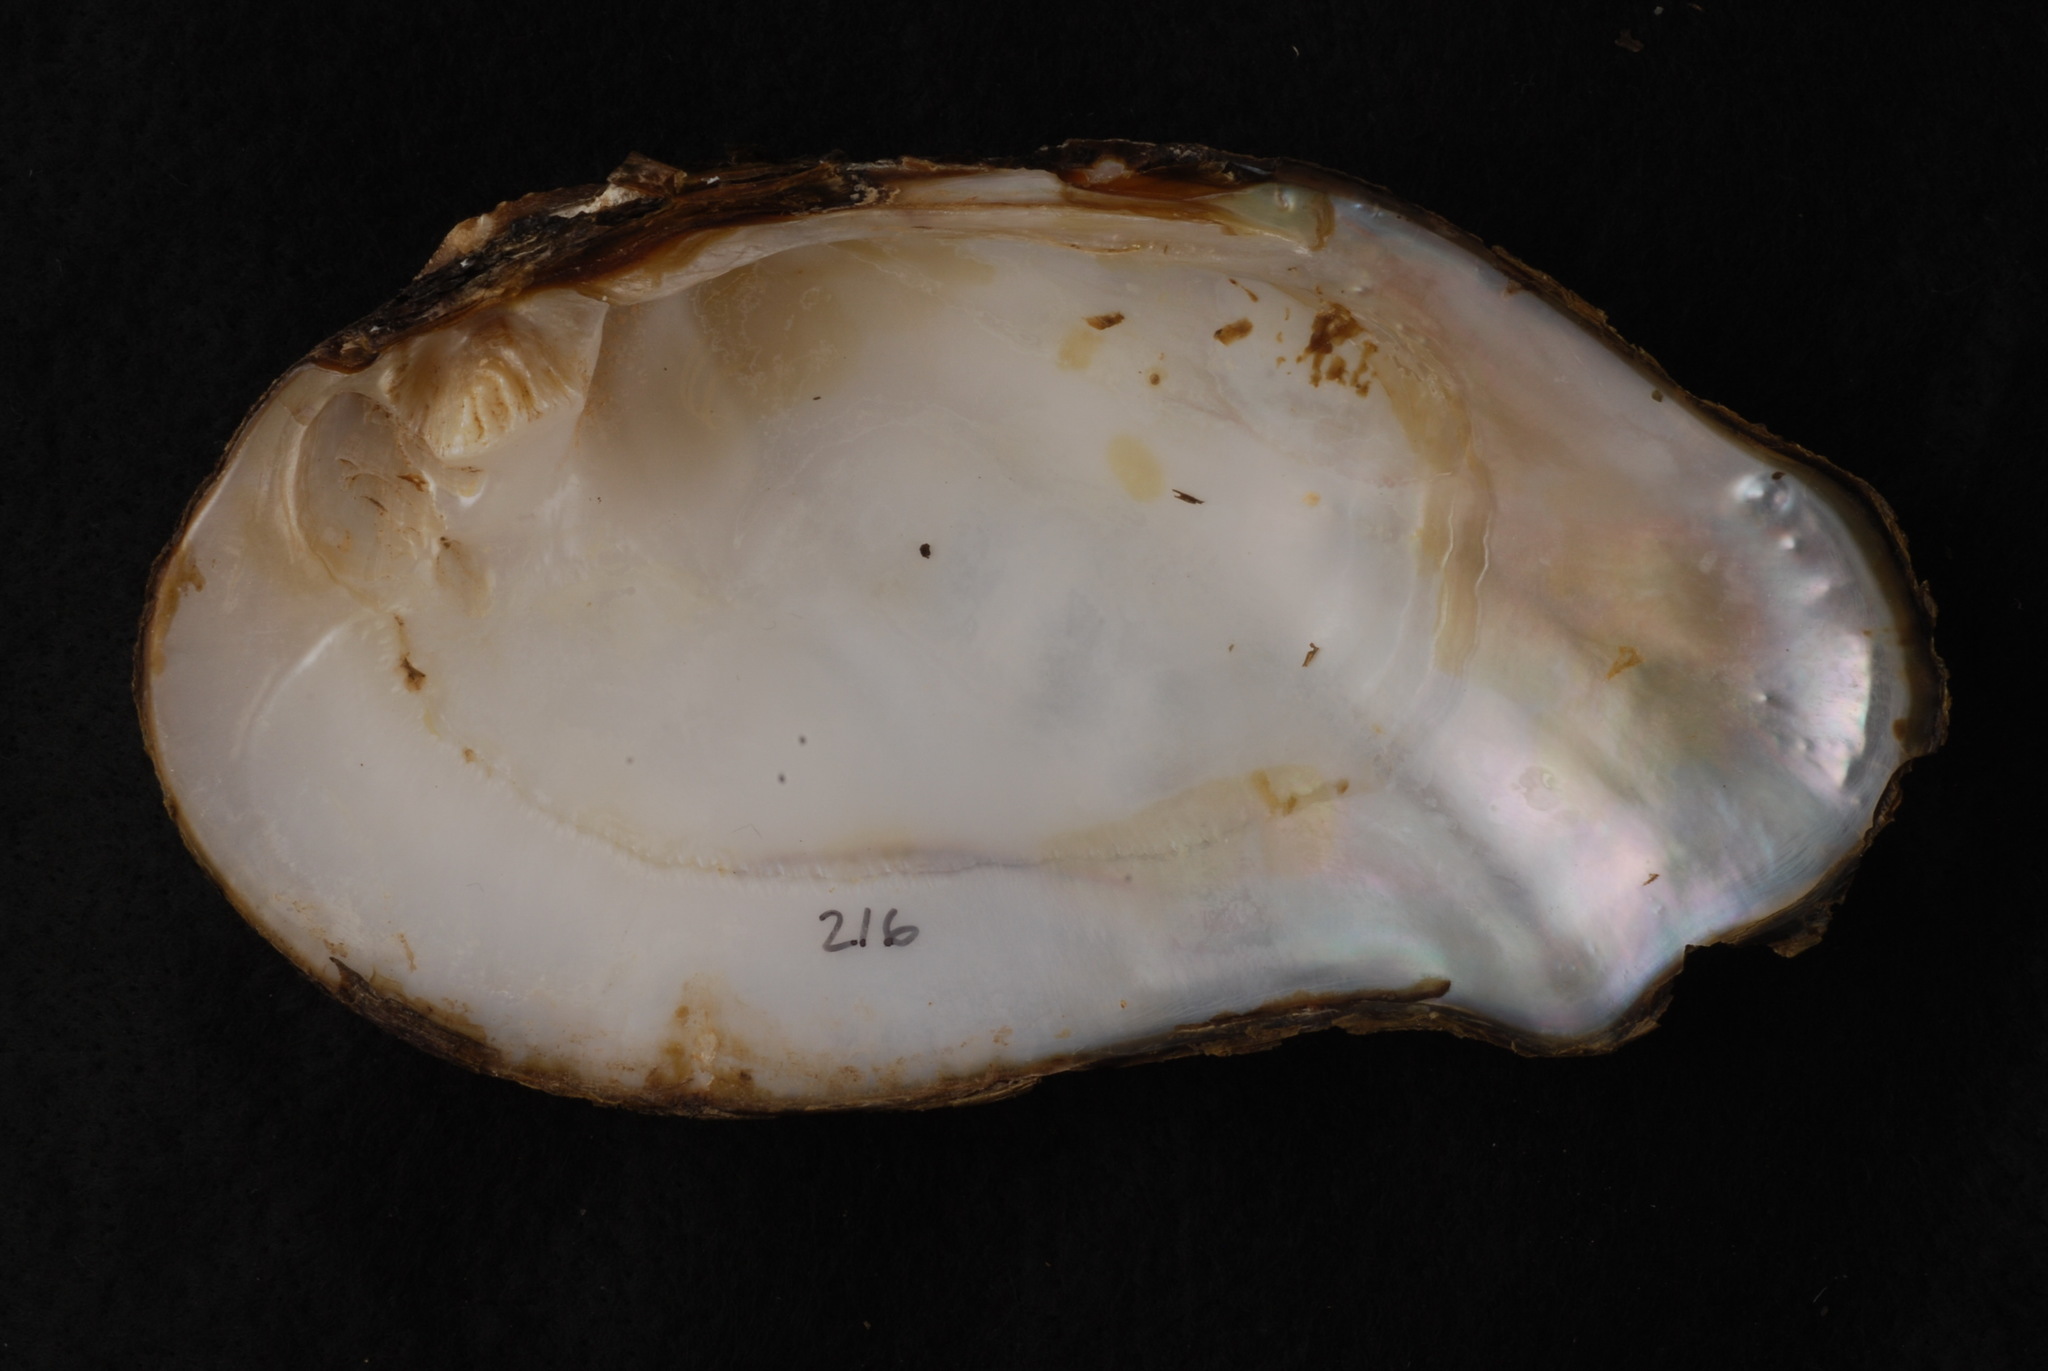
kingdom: Animalia
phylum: Mollusca
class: Bivalvia
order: Unionida
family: Unionidae
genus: Tritogonia
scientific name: Tritogonia verrucosa
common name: Pistolgrip
